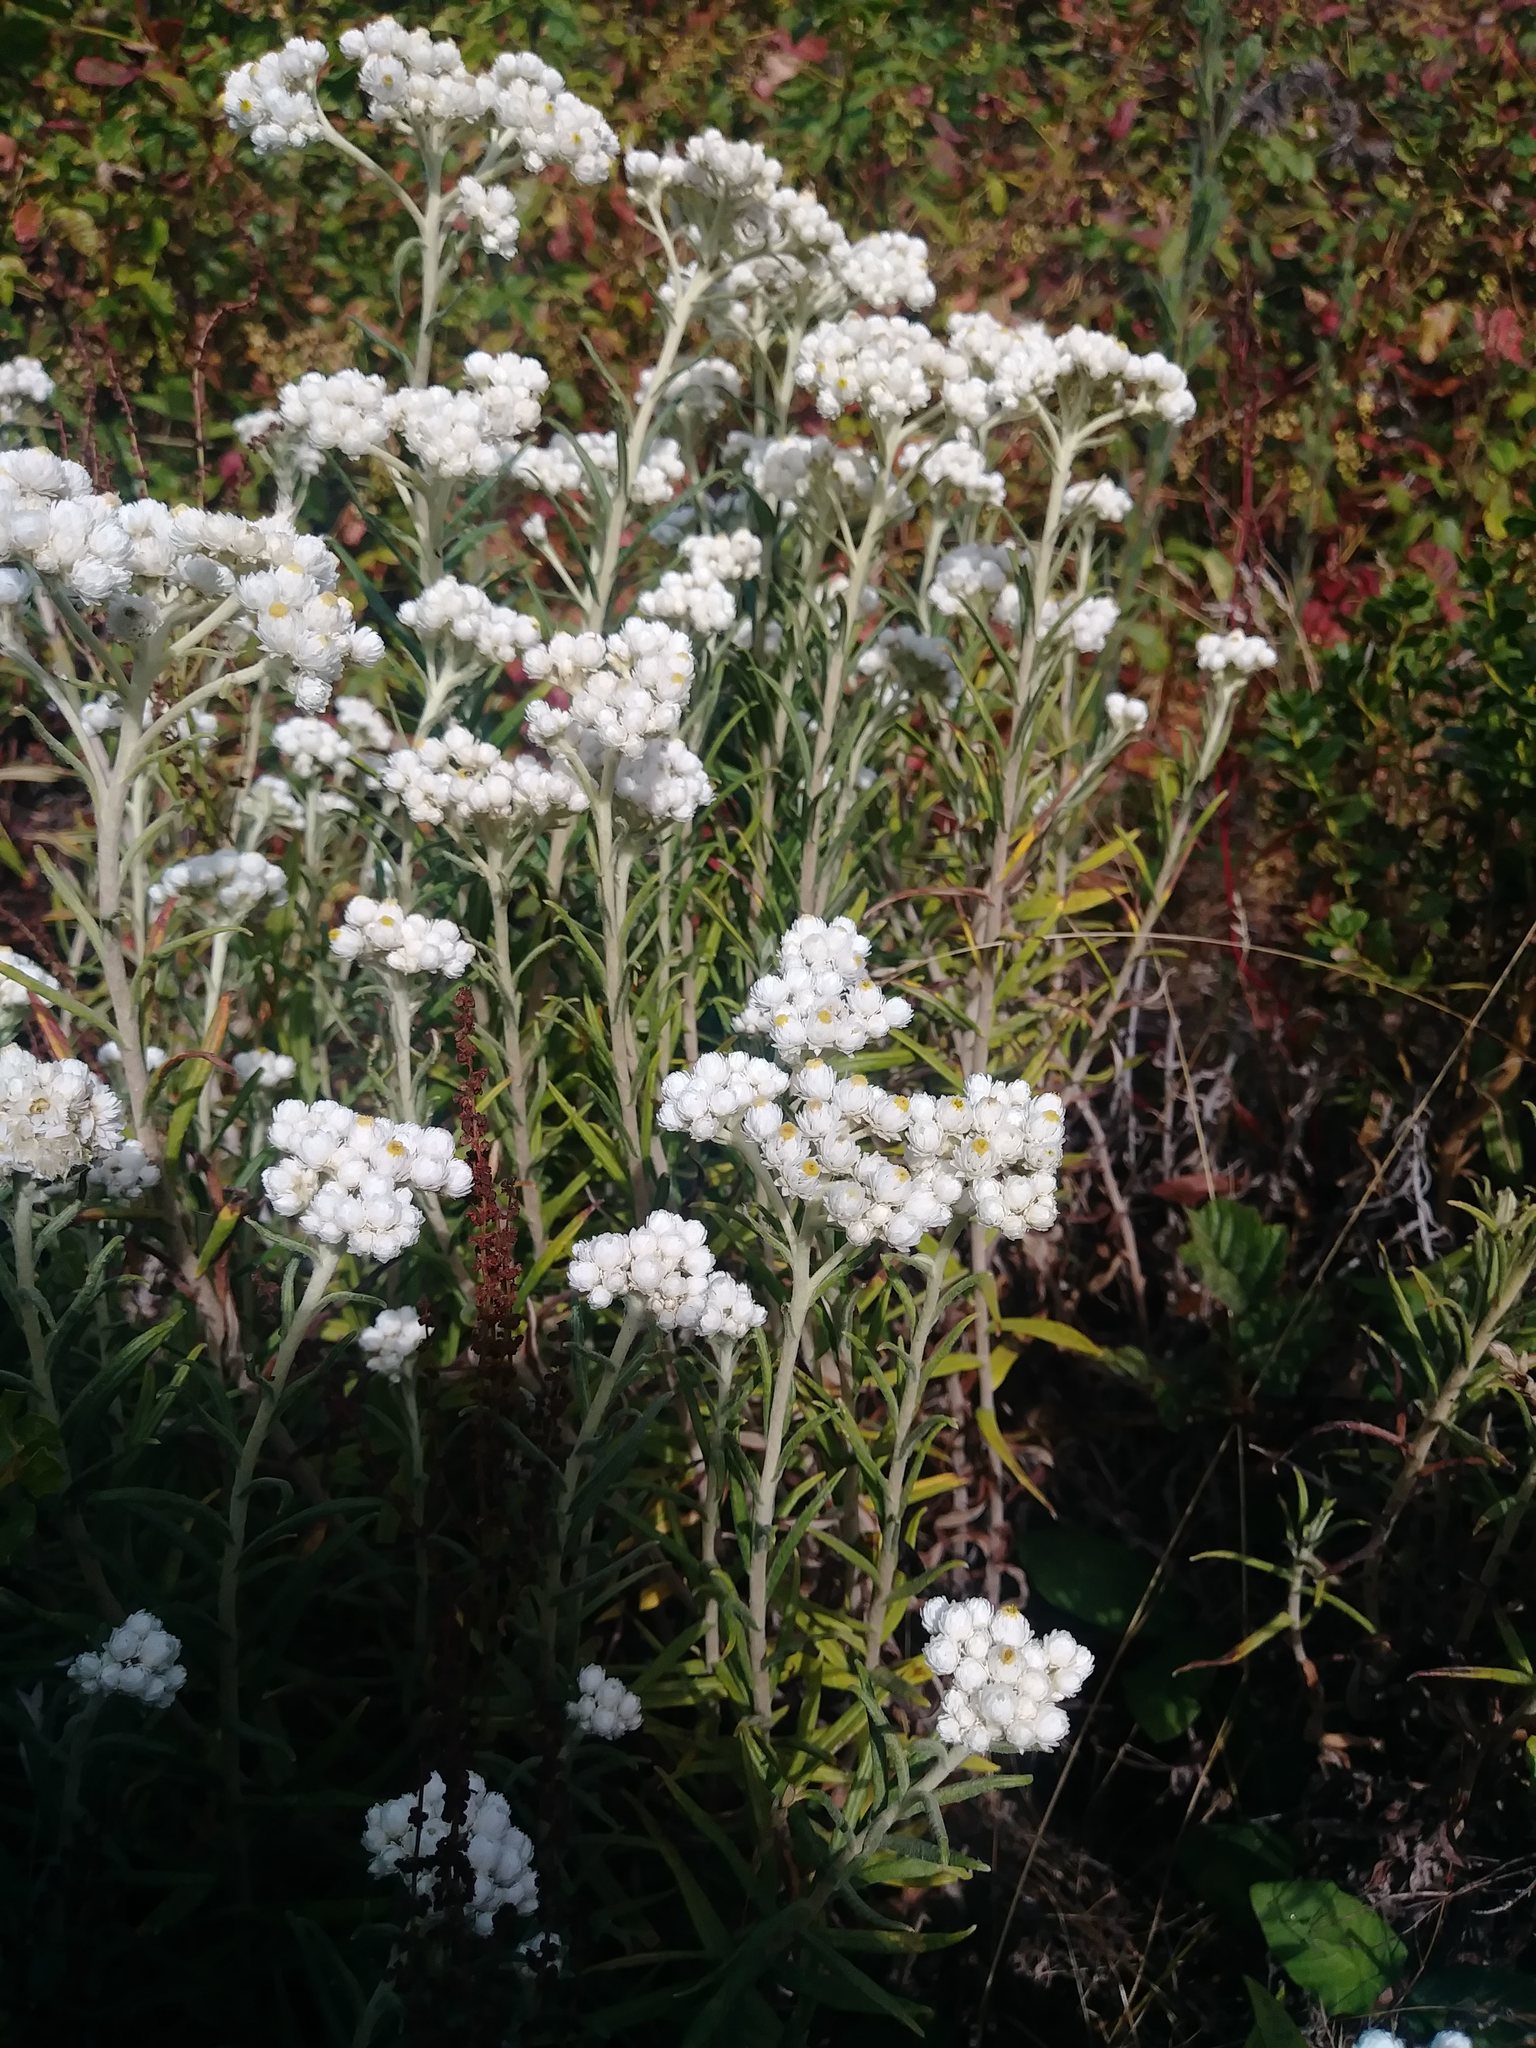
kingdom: Plantae
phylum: Tracheophyta
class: Magnoliopsida
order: Asterales
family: Asteraceae
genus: Anaphalis
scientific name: Anaphalis margaritacea
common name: Pearly everlasting
